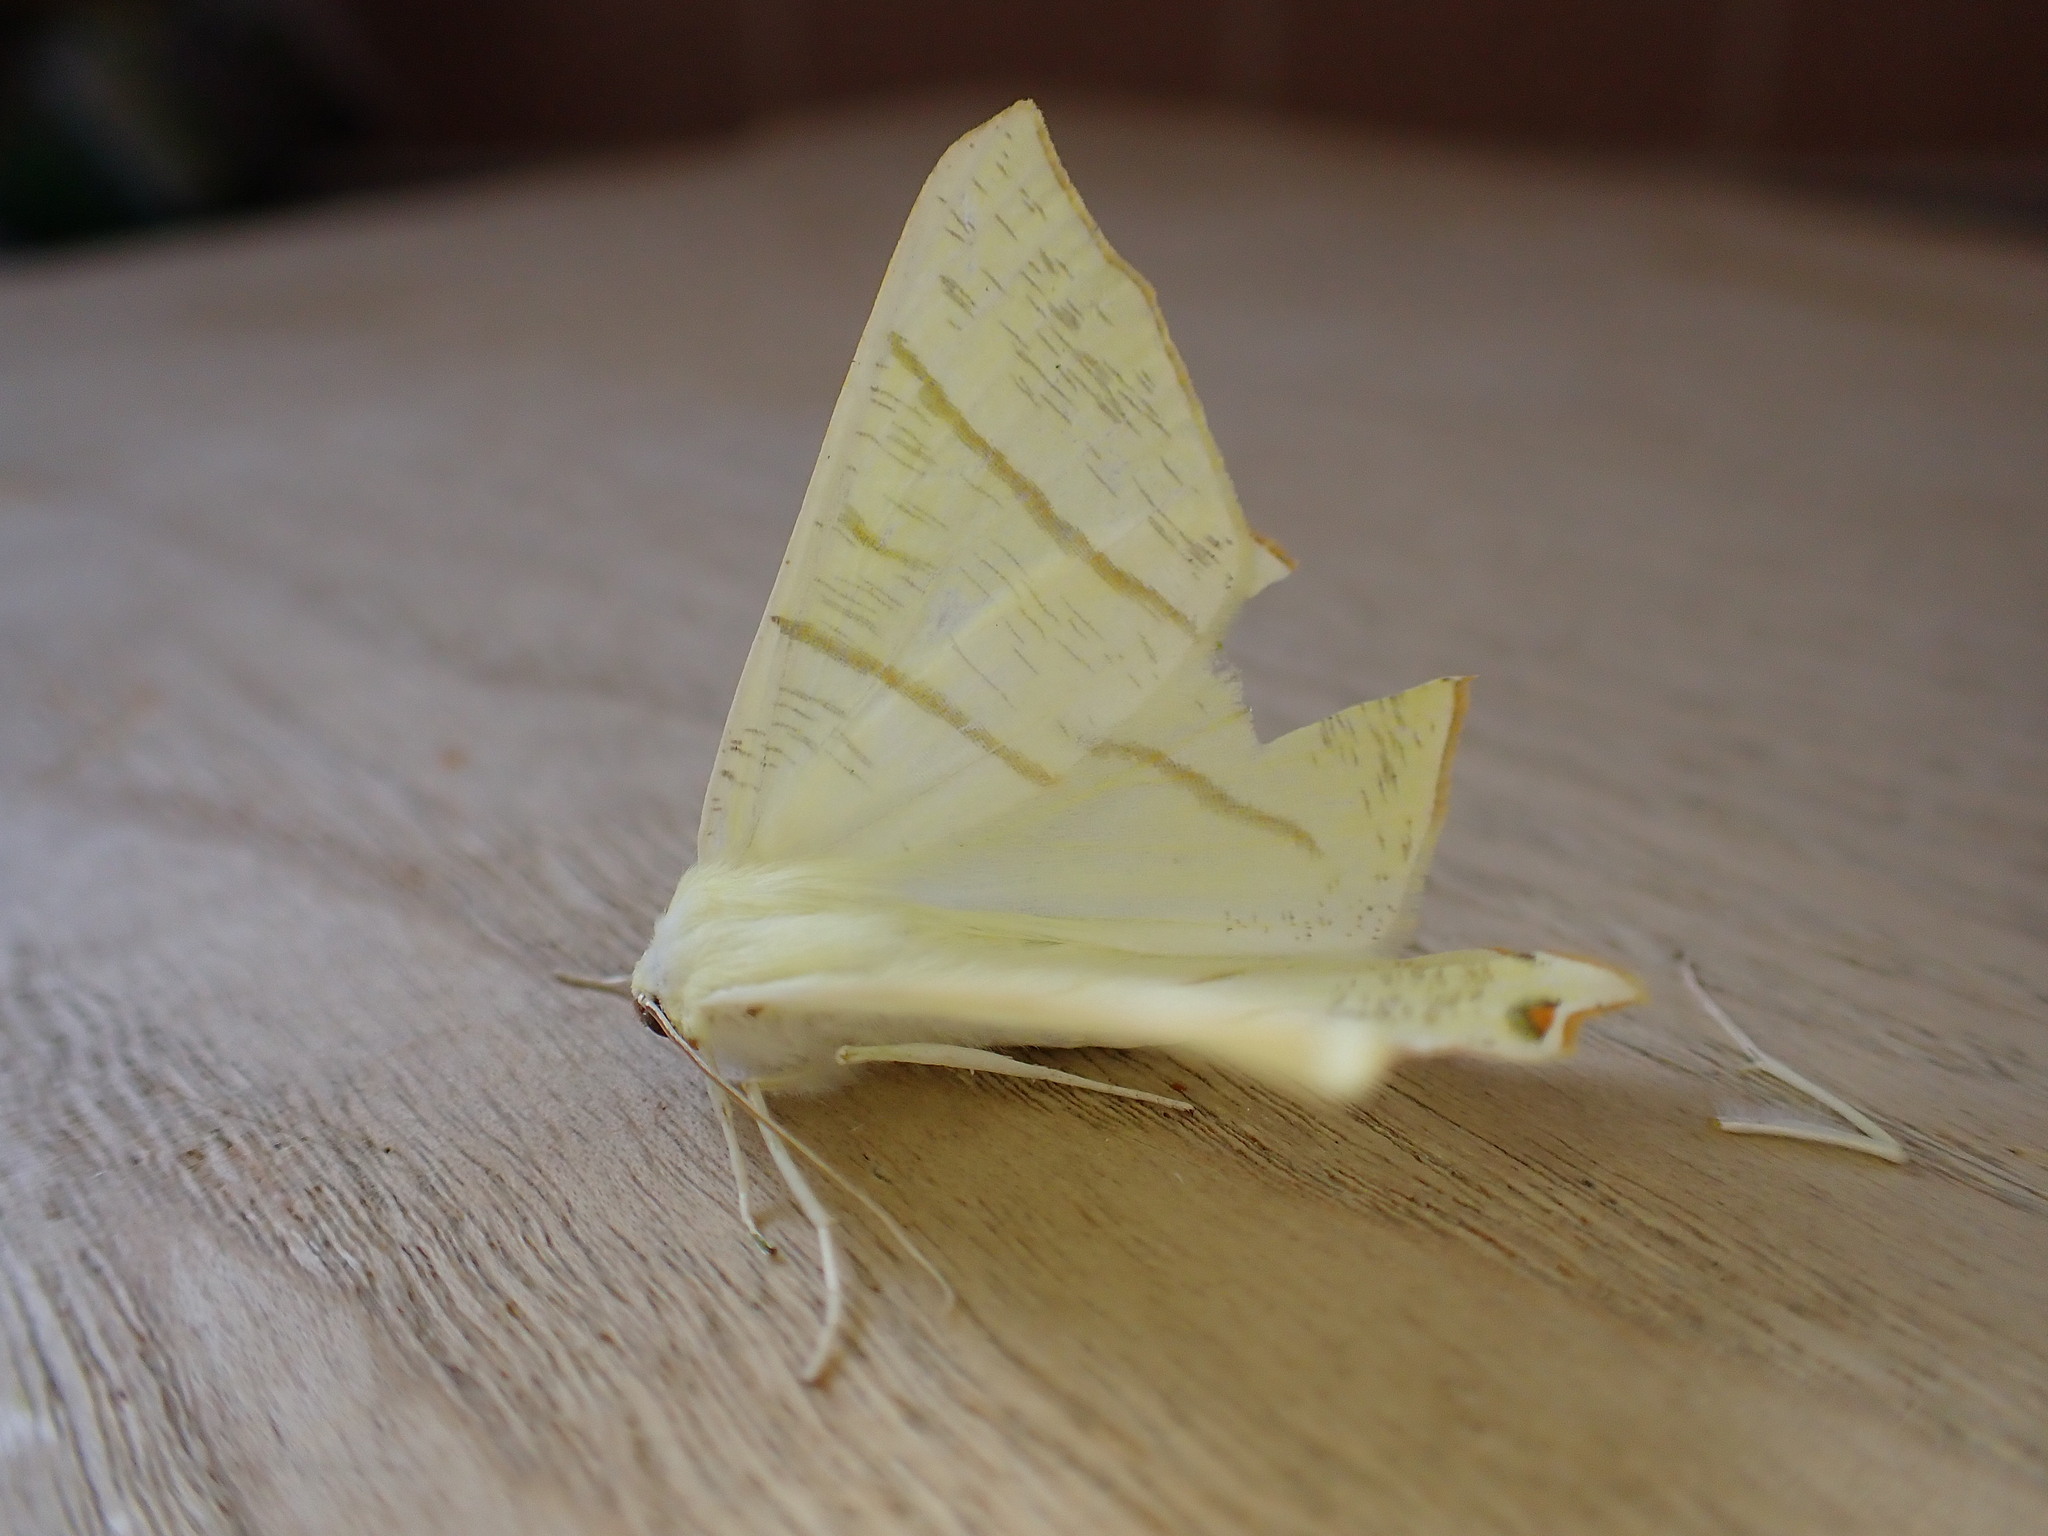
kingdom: Animalia
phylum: Arthropoda
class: Insecta
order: Lepidoptera
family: Geometridae
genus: Ourapteryx
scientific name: Ourapteryx sambucaria
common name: Swallow-tailed moth
